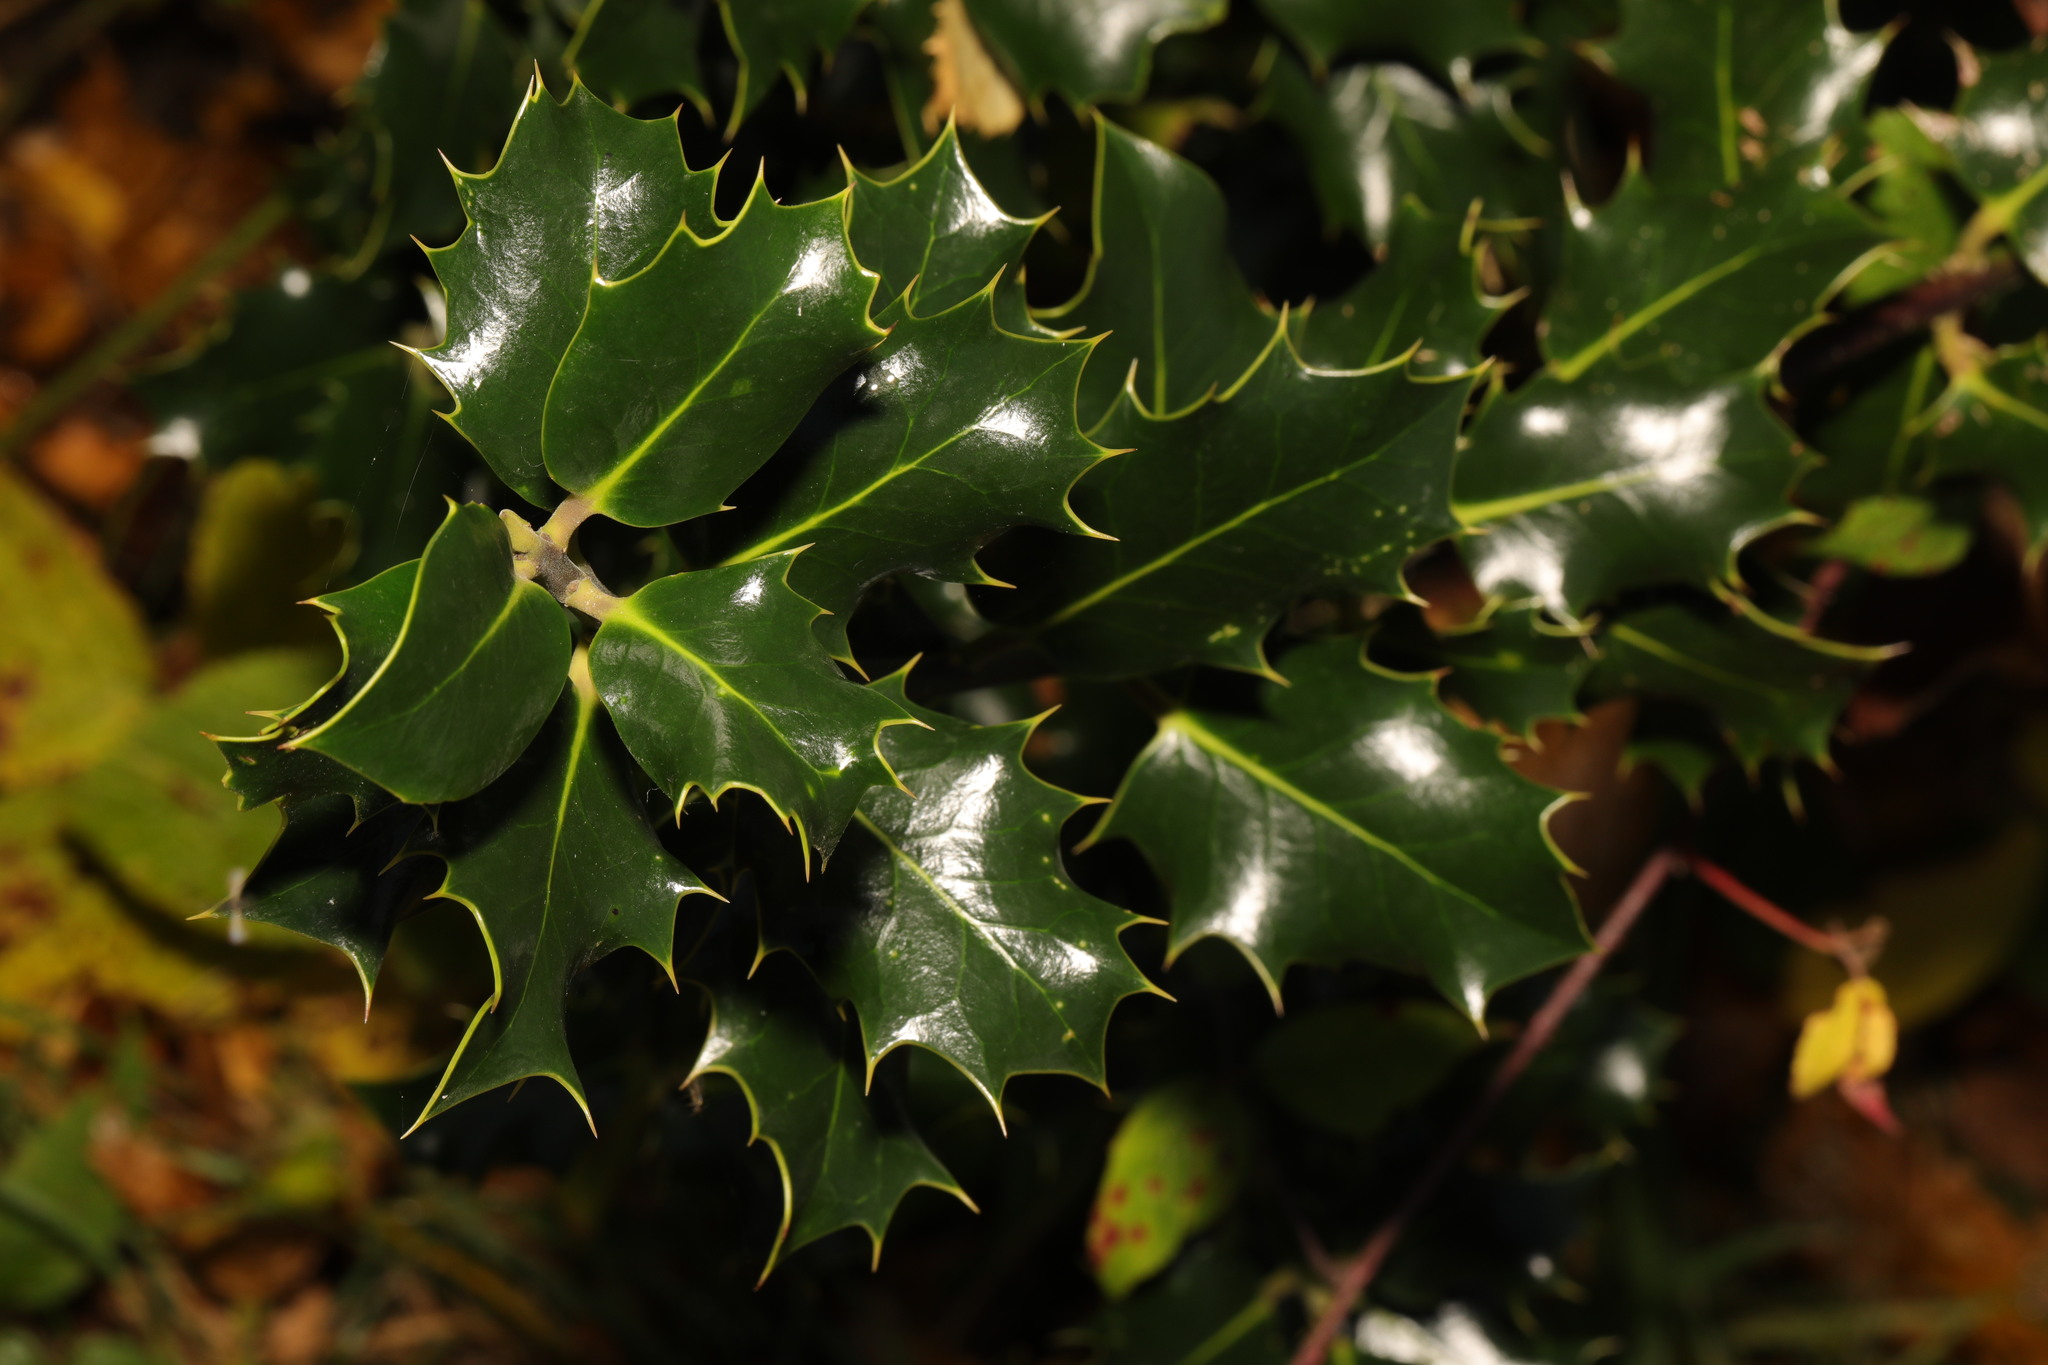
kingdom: Plantae
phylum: Tracheophyta
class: Magnoliopsida
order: Aquifoliales
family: Aquifoliaceae
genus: Ilex
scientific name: Ilex aquifolium
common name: English holly
